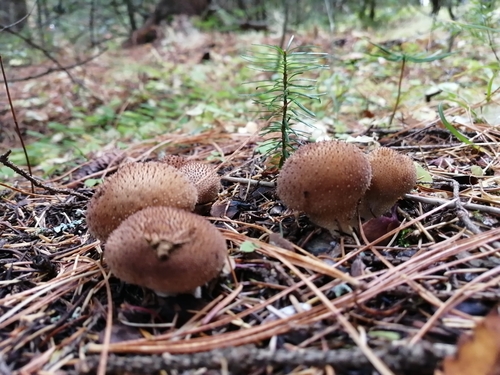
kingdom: Fungi
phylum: Basidiomycota
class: Agaricomycetes
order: Agaricales
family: Lycoperdaceae
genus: Lycoperdon
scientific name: Lycoperdon nigrescens
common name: Blackish puffball
